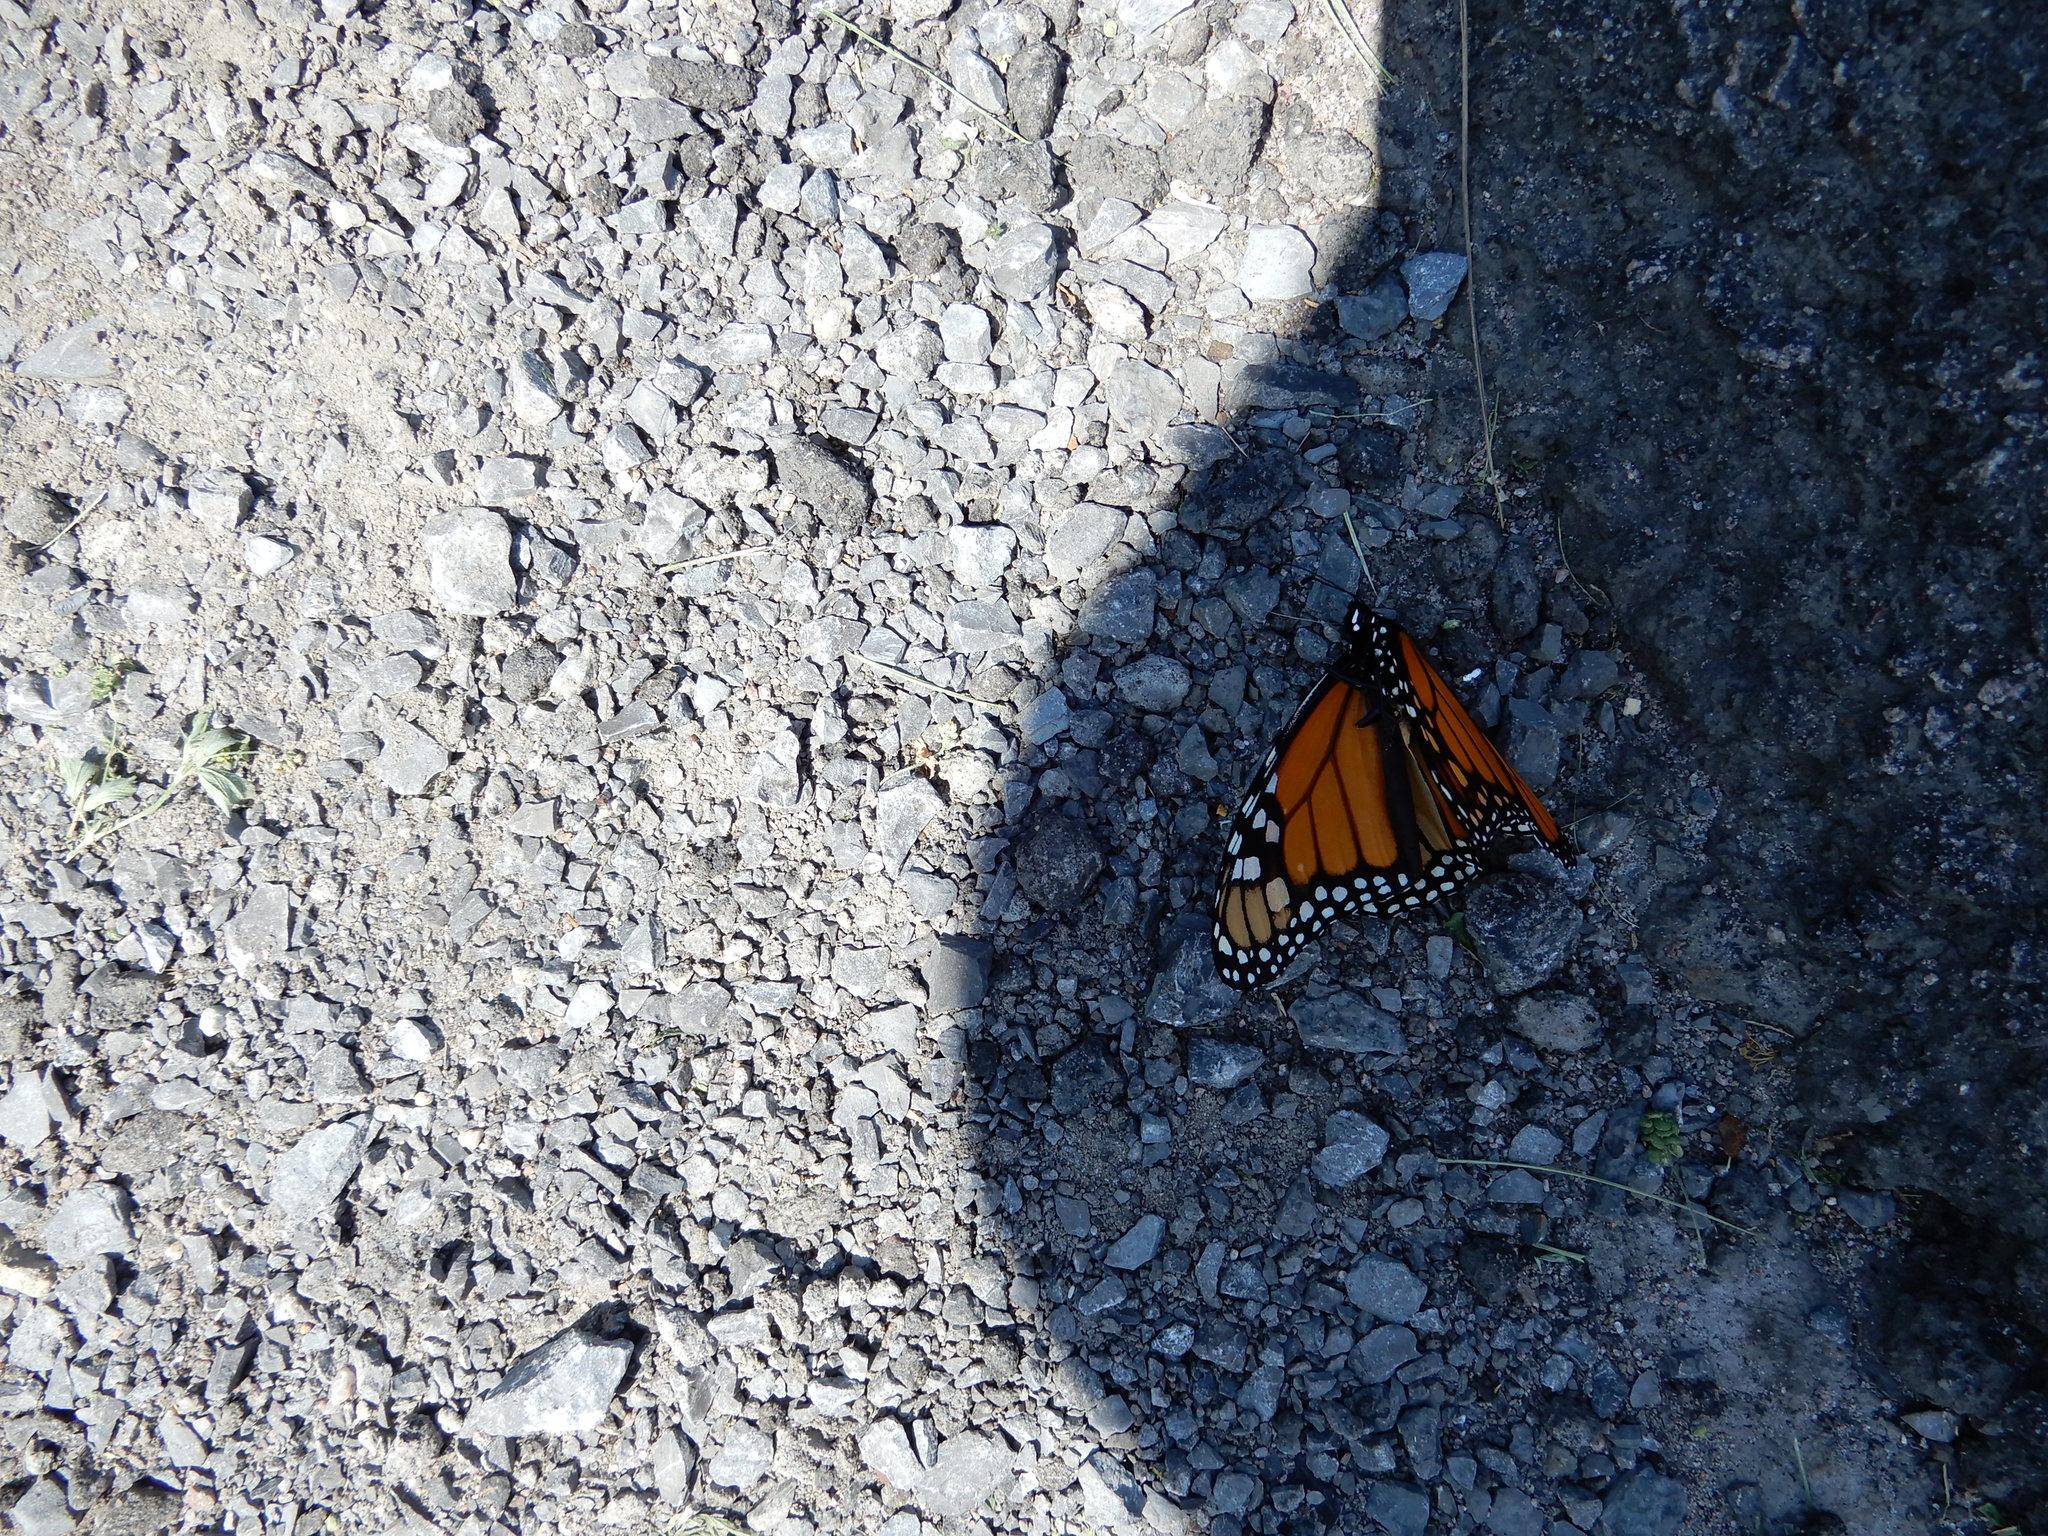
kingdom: Animalia
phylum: Arthropoda
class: Insecta
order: Lepidoptera
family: Nymphalidae
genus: Danaus
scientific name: Danaus plexippus
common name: Monarch
